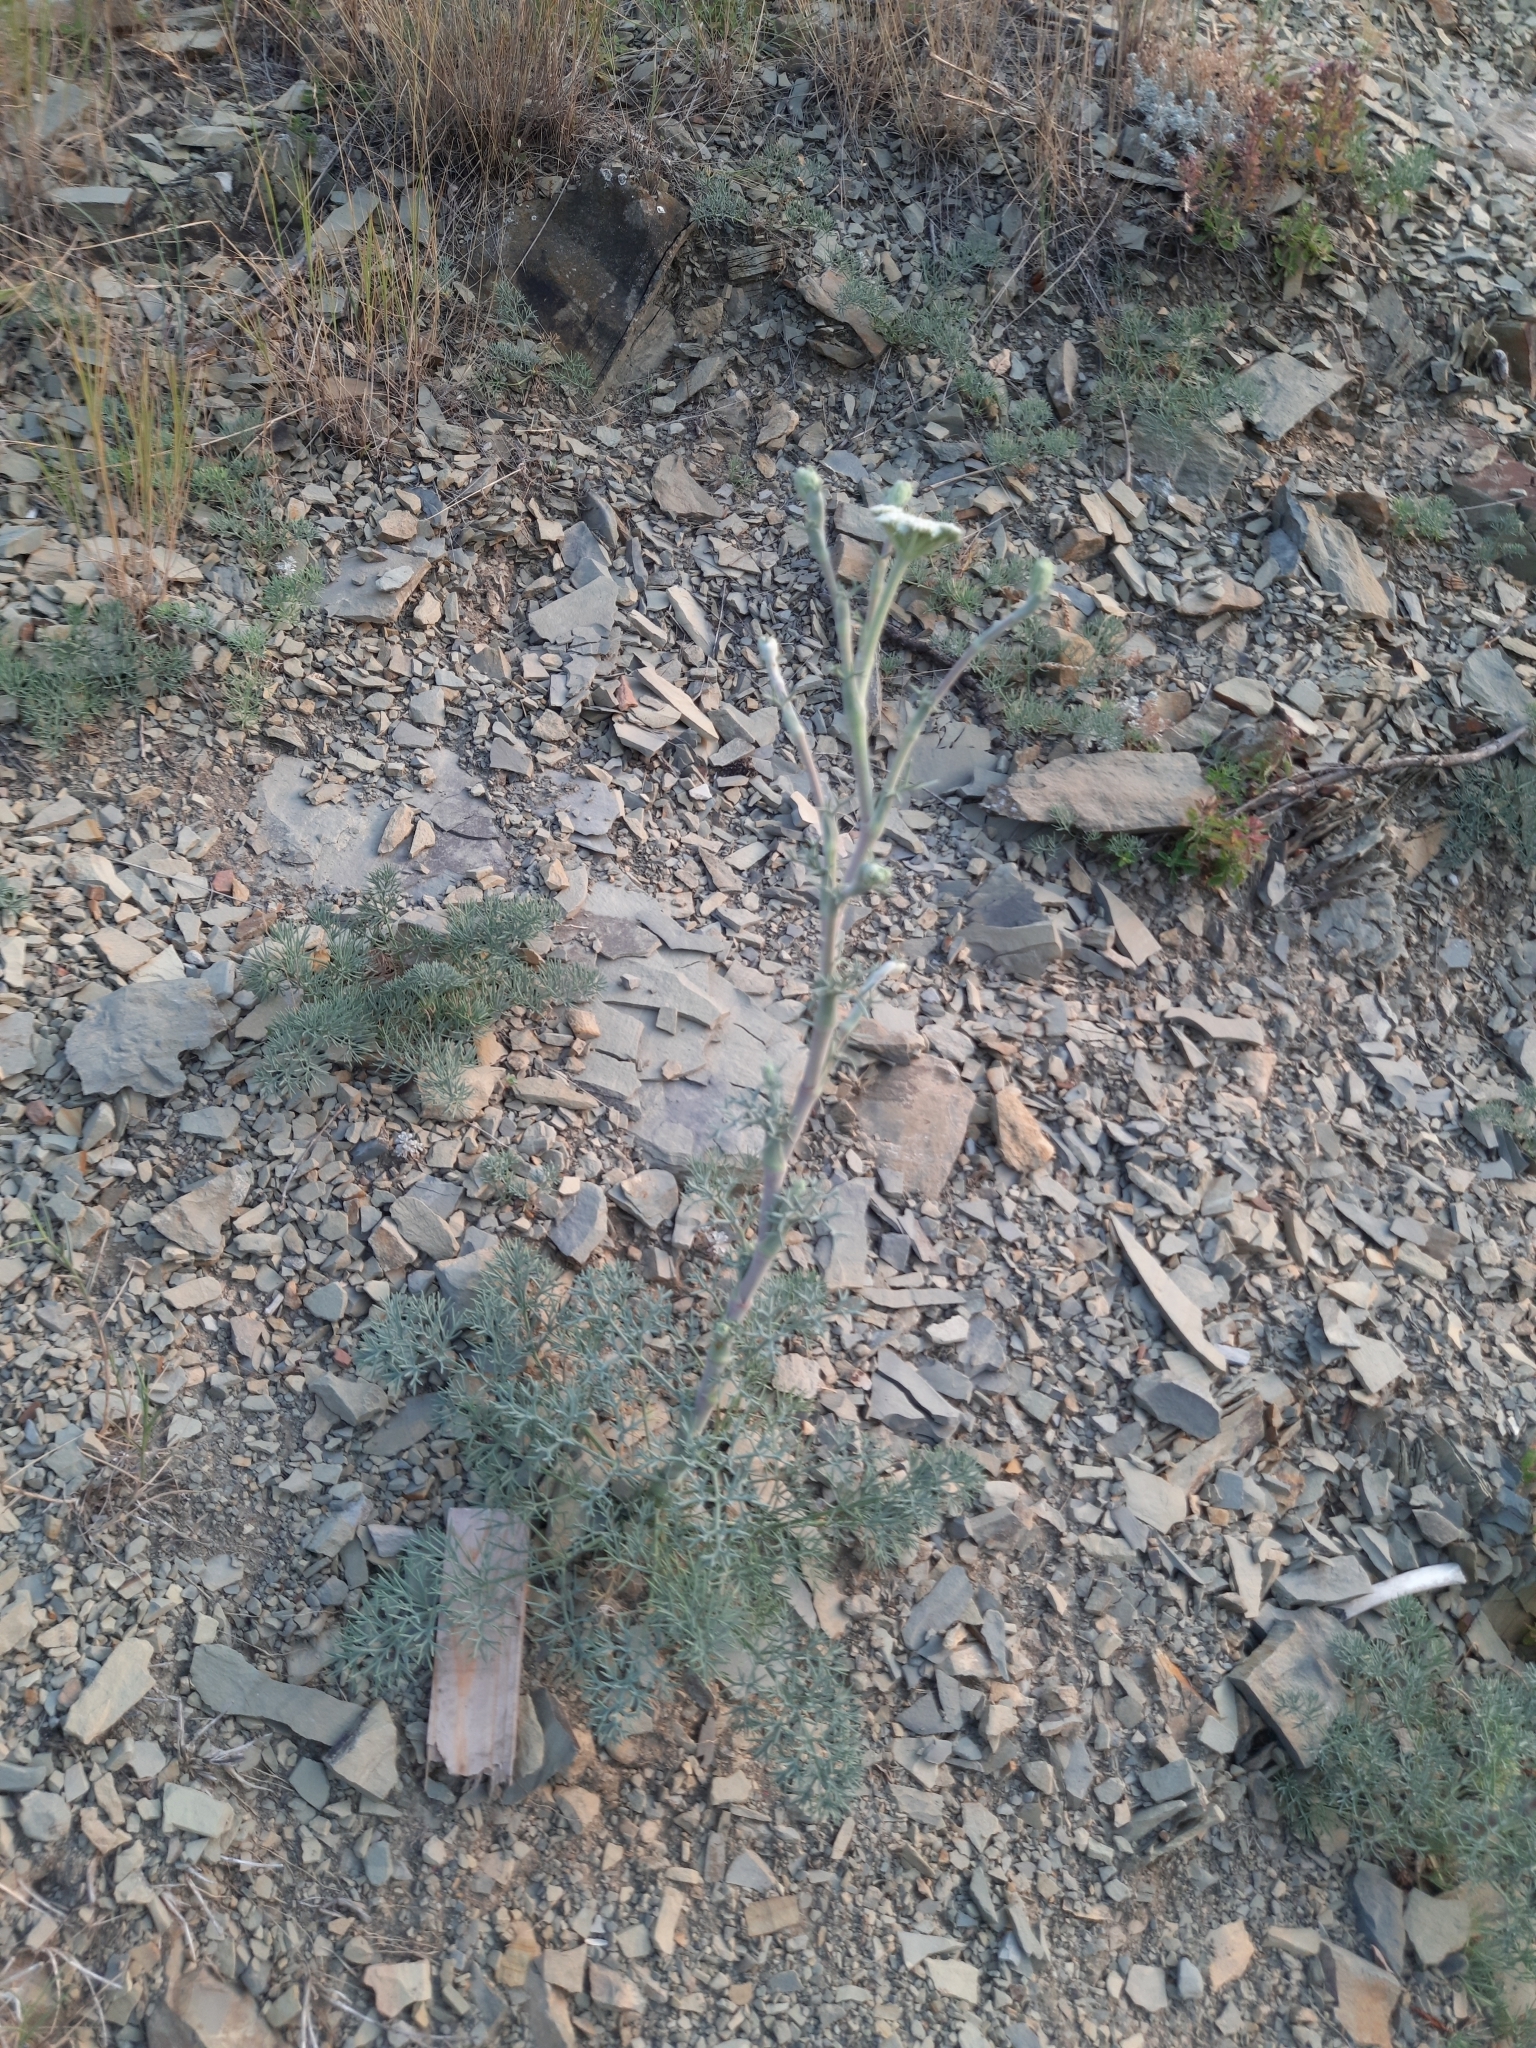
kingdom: Plantae
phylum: Tracheophyta
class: Magnoliopsida
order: Apiales
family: Apiaceae
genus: Seseli
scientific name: Seseli ponticum
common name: Pontic seseli
